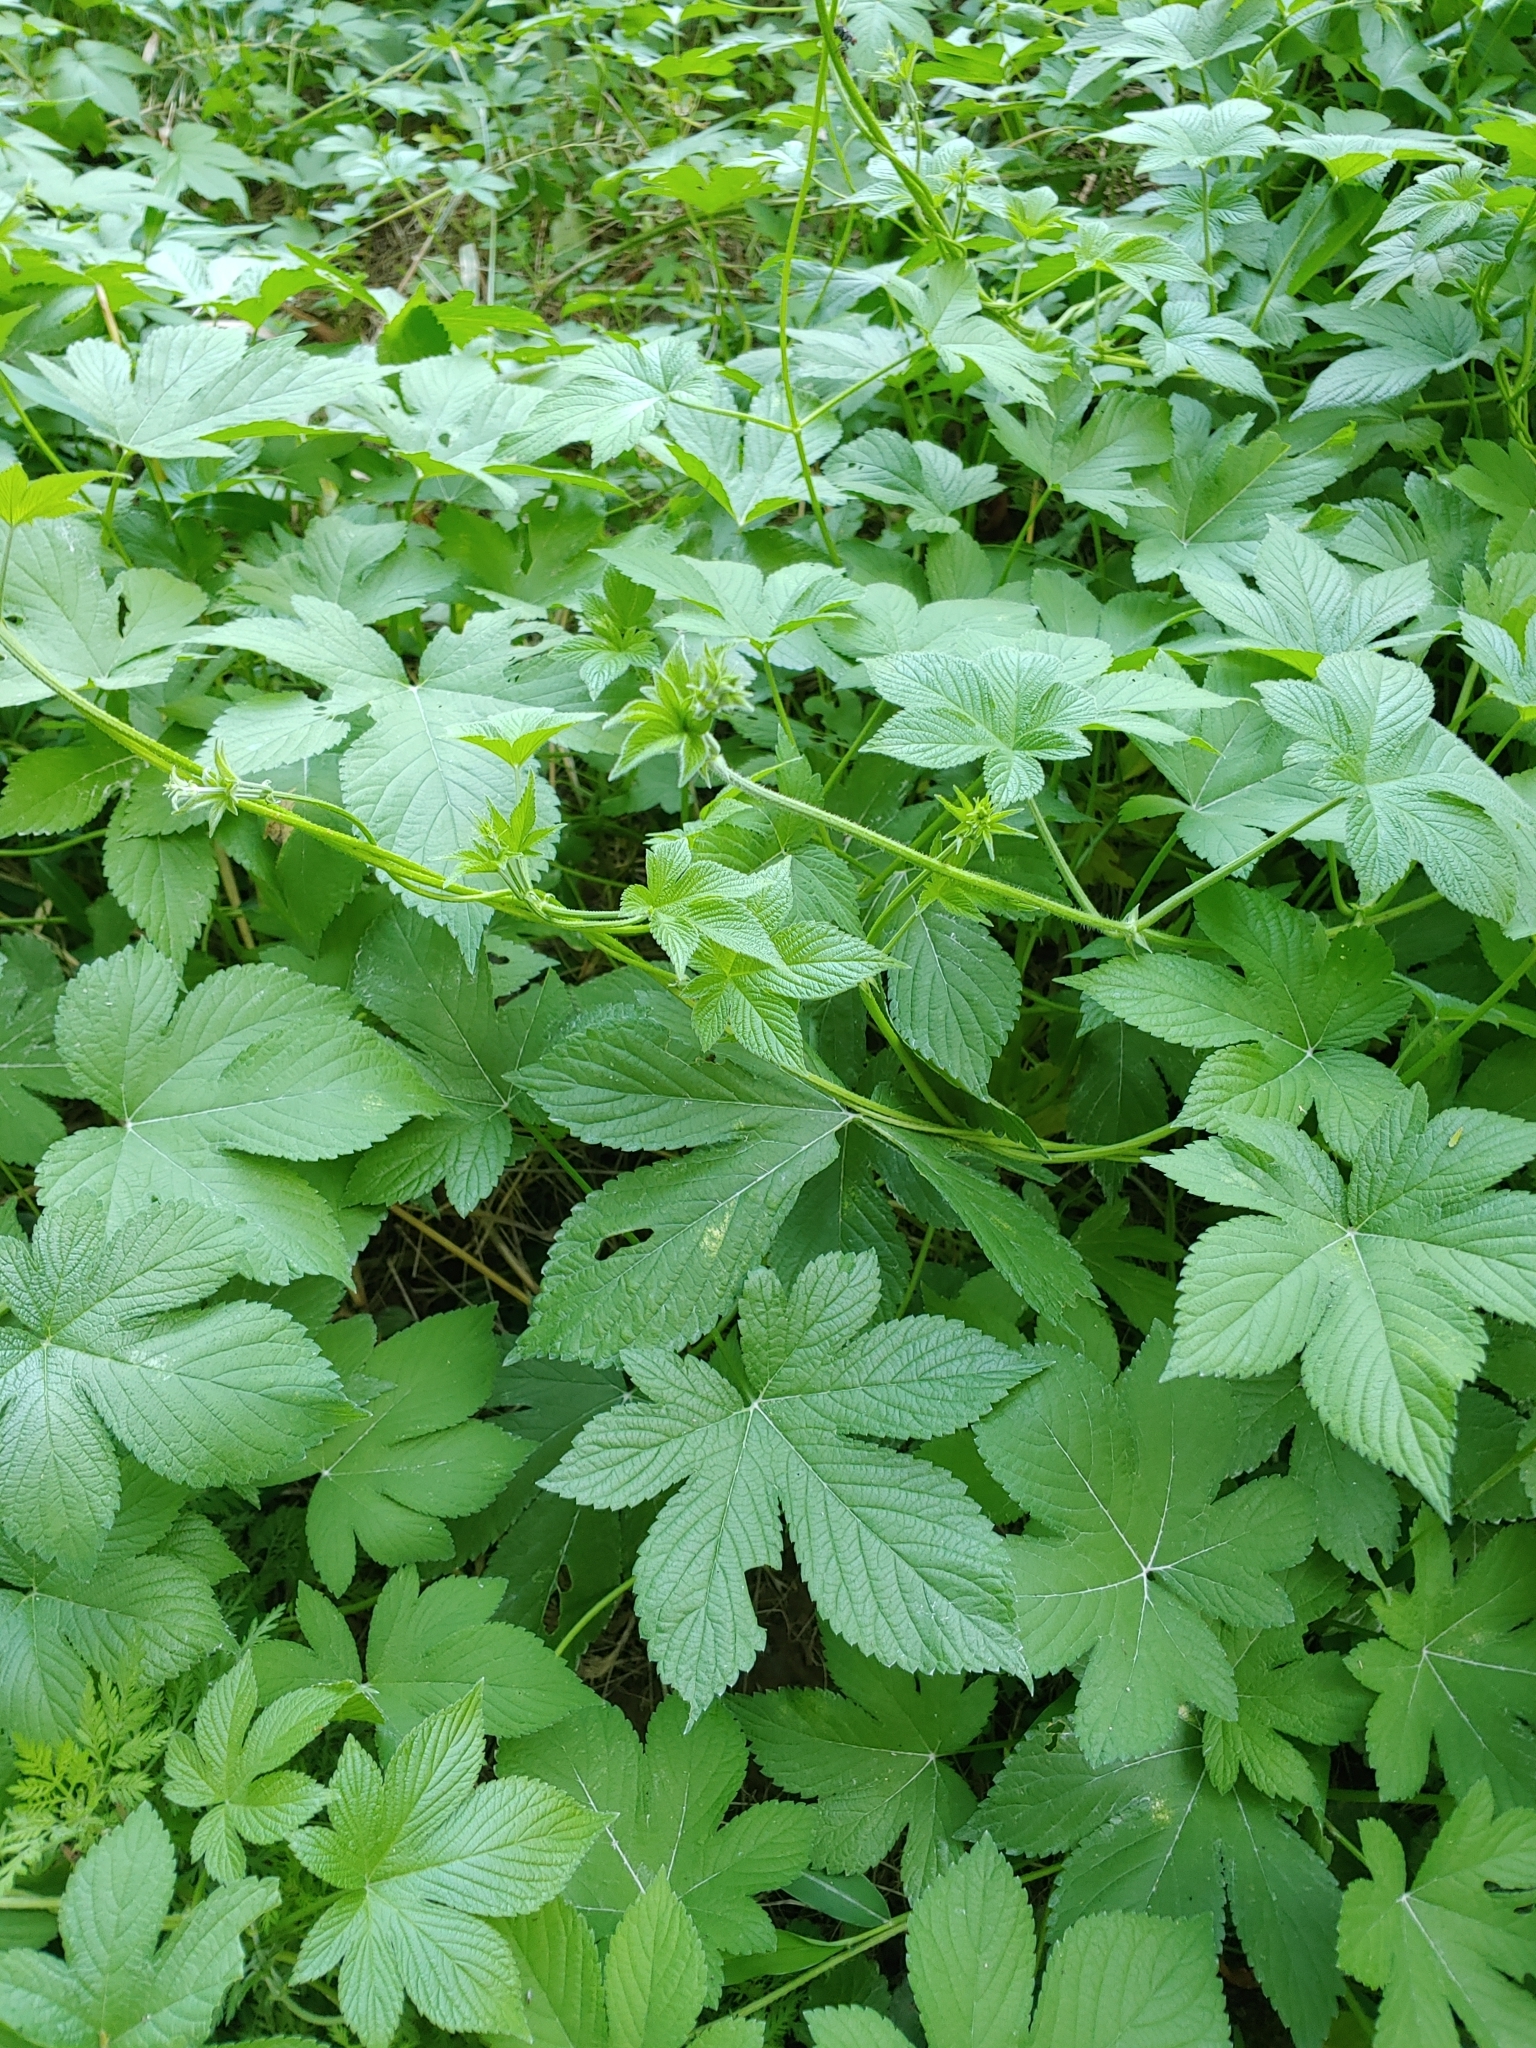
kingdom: Plantae
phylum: Tracheophyta
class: Magnoliopsida
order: Rosales
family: Cannabaceae
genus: Humulus
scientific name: Humulus scandens
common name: Japanese hop
